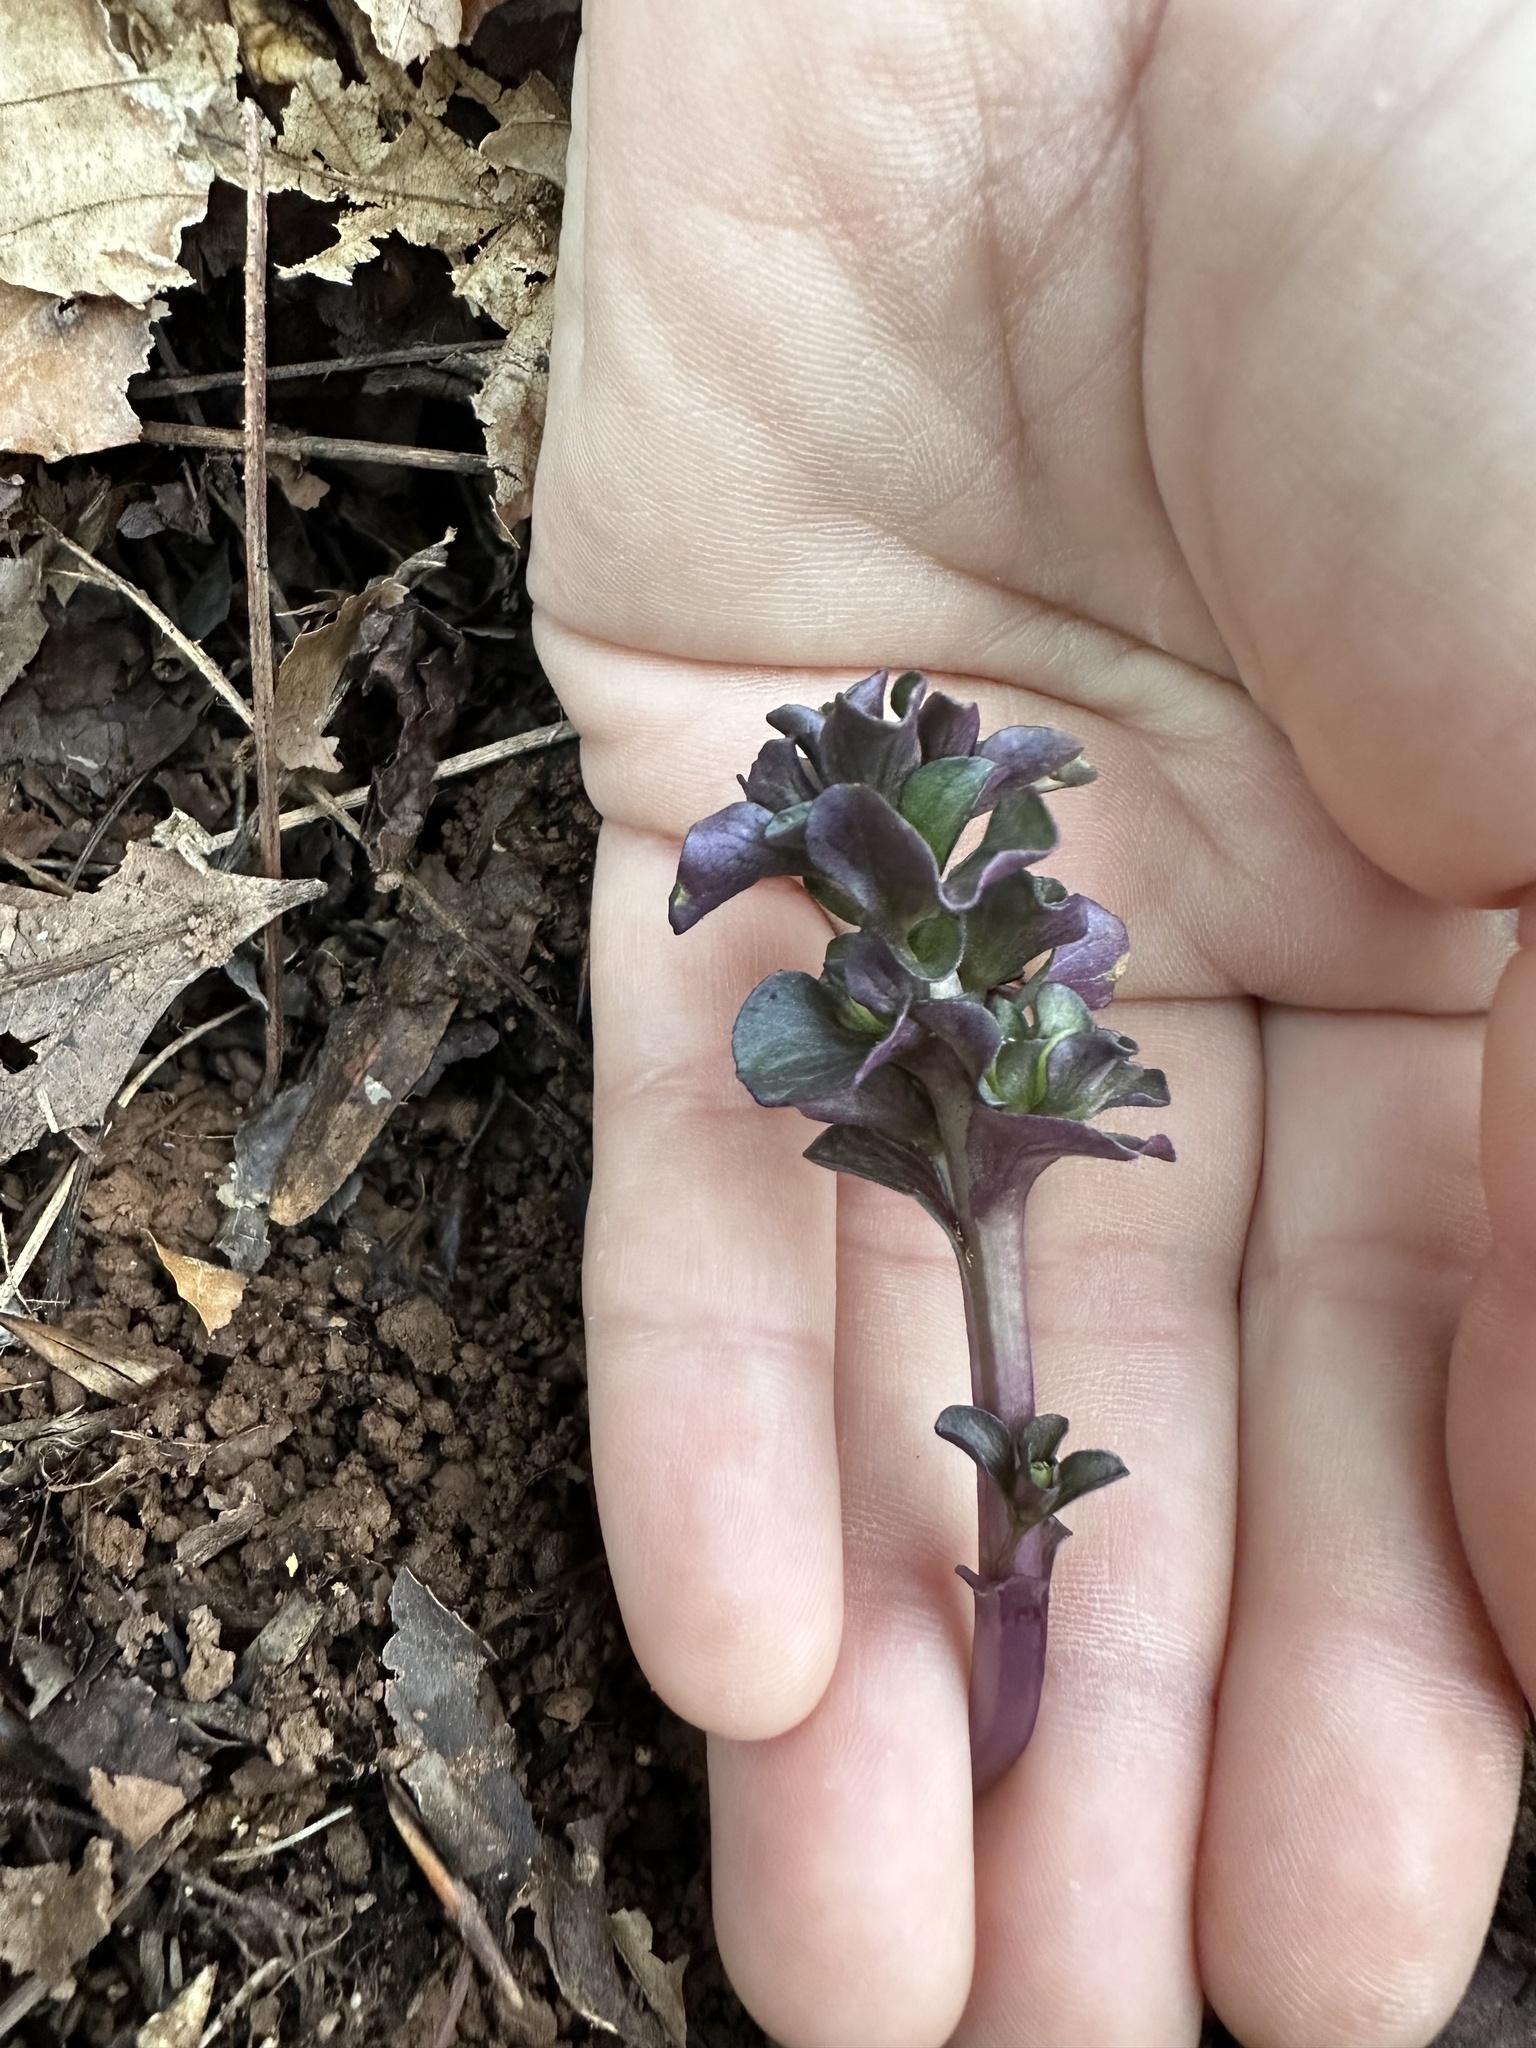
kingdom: Plantae
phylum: Tracheophyta
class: Magnoliopsida
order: Gentianales
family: Gentianaceae
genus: Obolaria
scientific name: Obolaria virginica
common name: Pennywort
